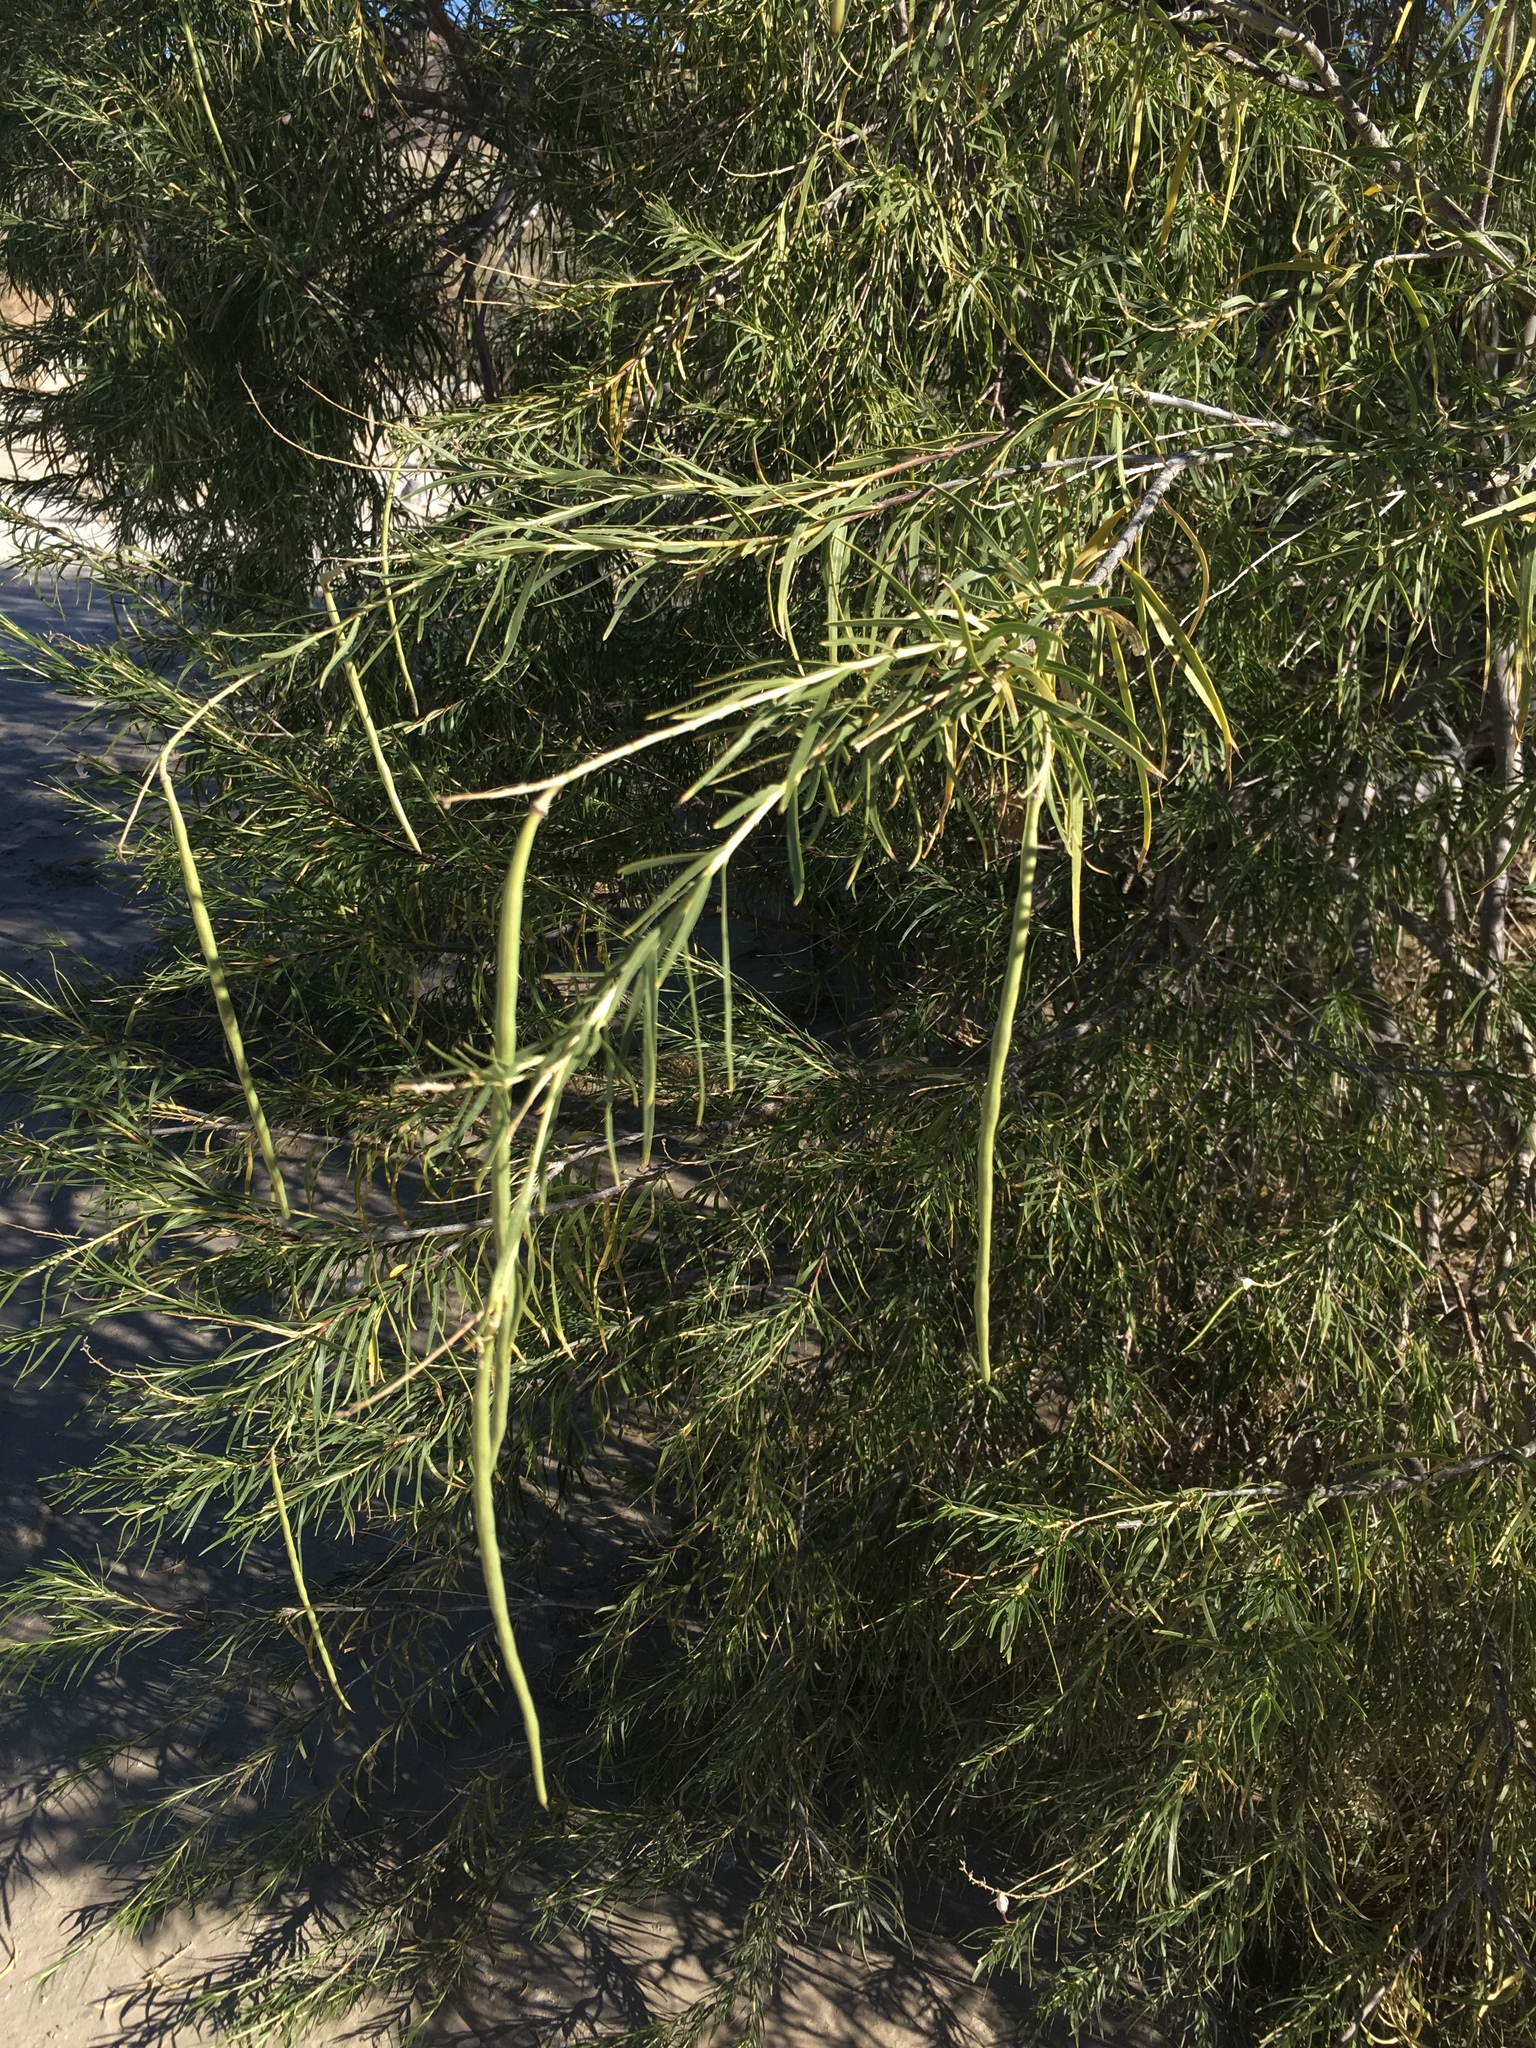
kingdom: Plantae
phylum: Tracheophyta
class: Magnoliopsida
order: Lamiales
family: Bignoniaceae
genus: Chilopsis
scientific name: Chilopsis linearis
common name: Desert-willow
